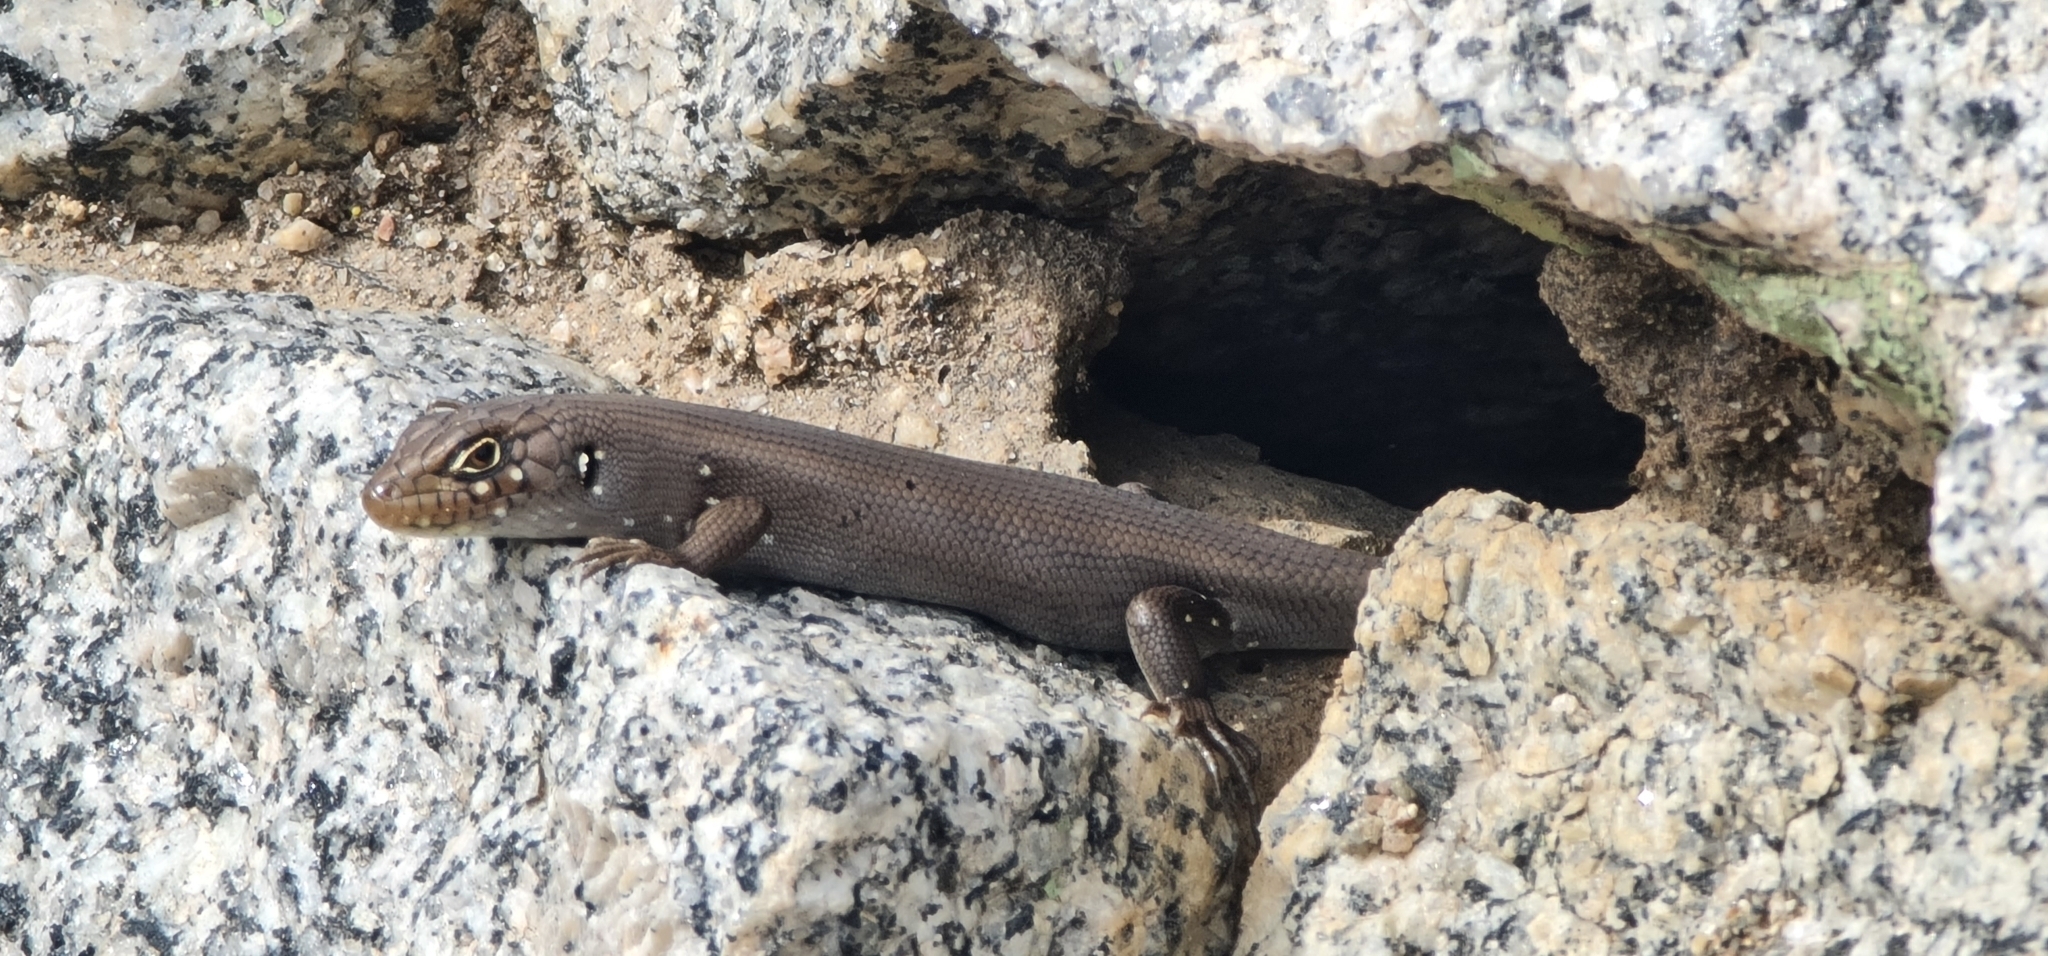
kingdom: Animalia
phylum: Chordata
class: Squamata
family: Scincidae
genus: Liopholis
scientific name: Liopholis modesta
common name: Eastern ranges rock-skink
